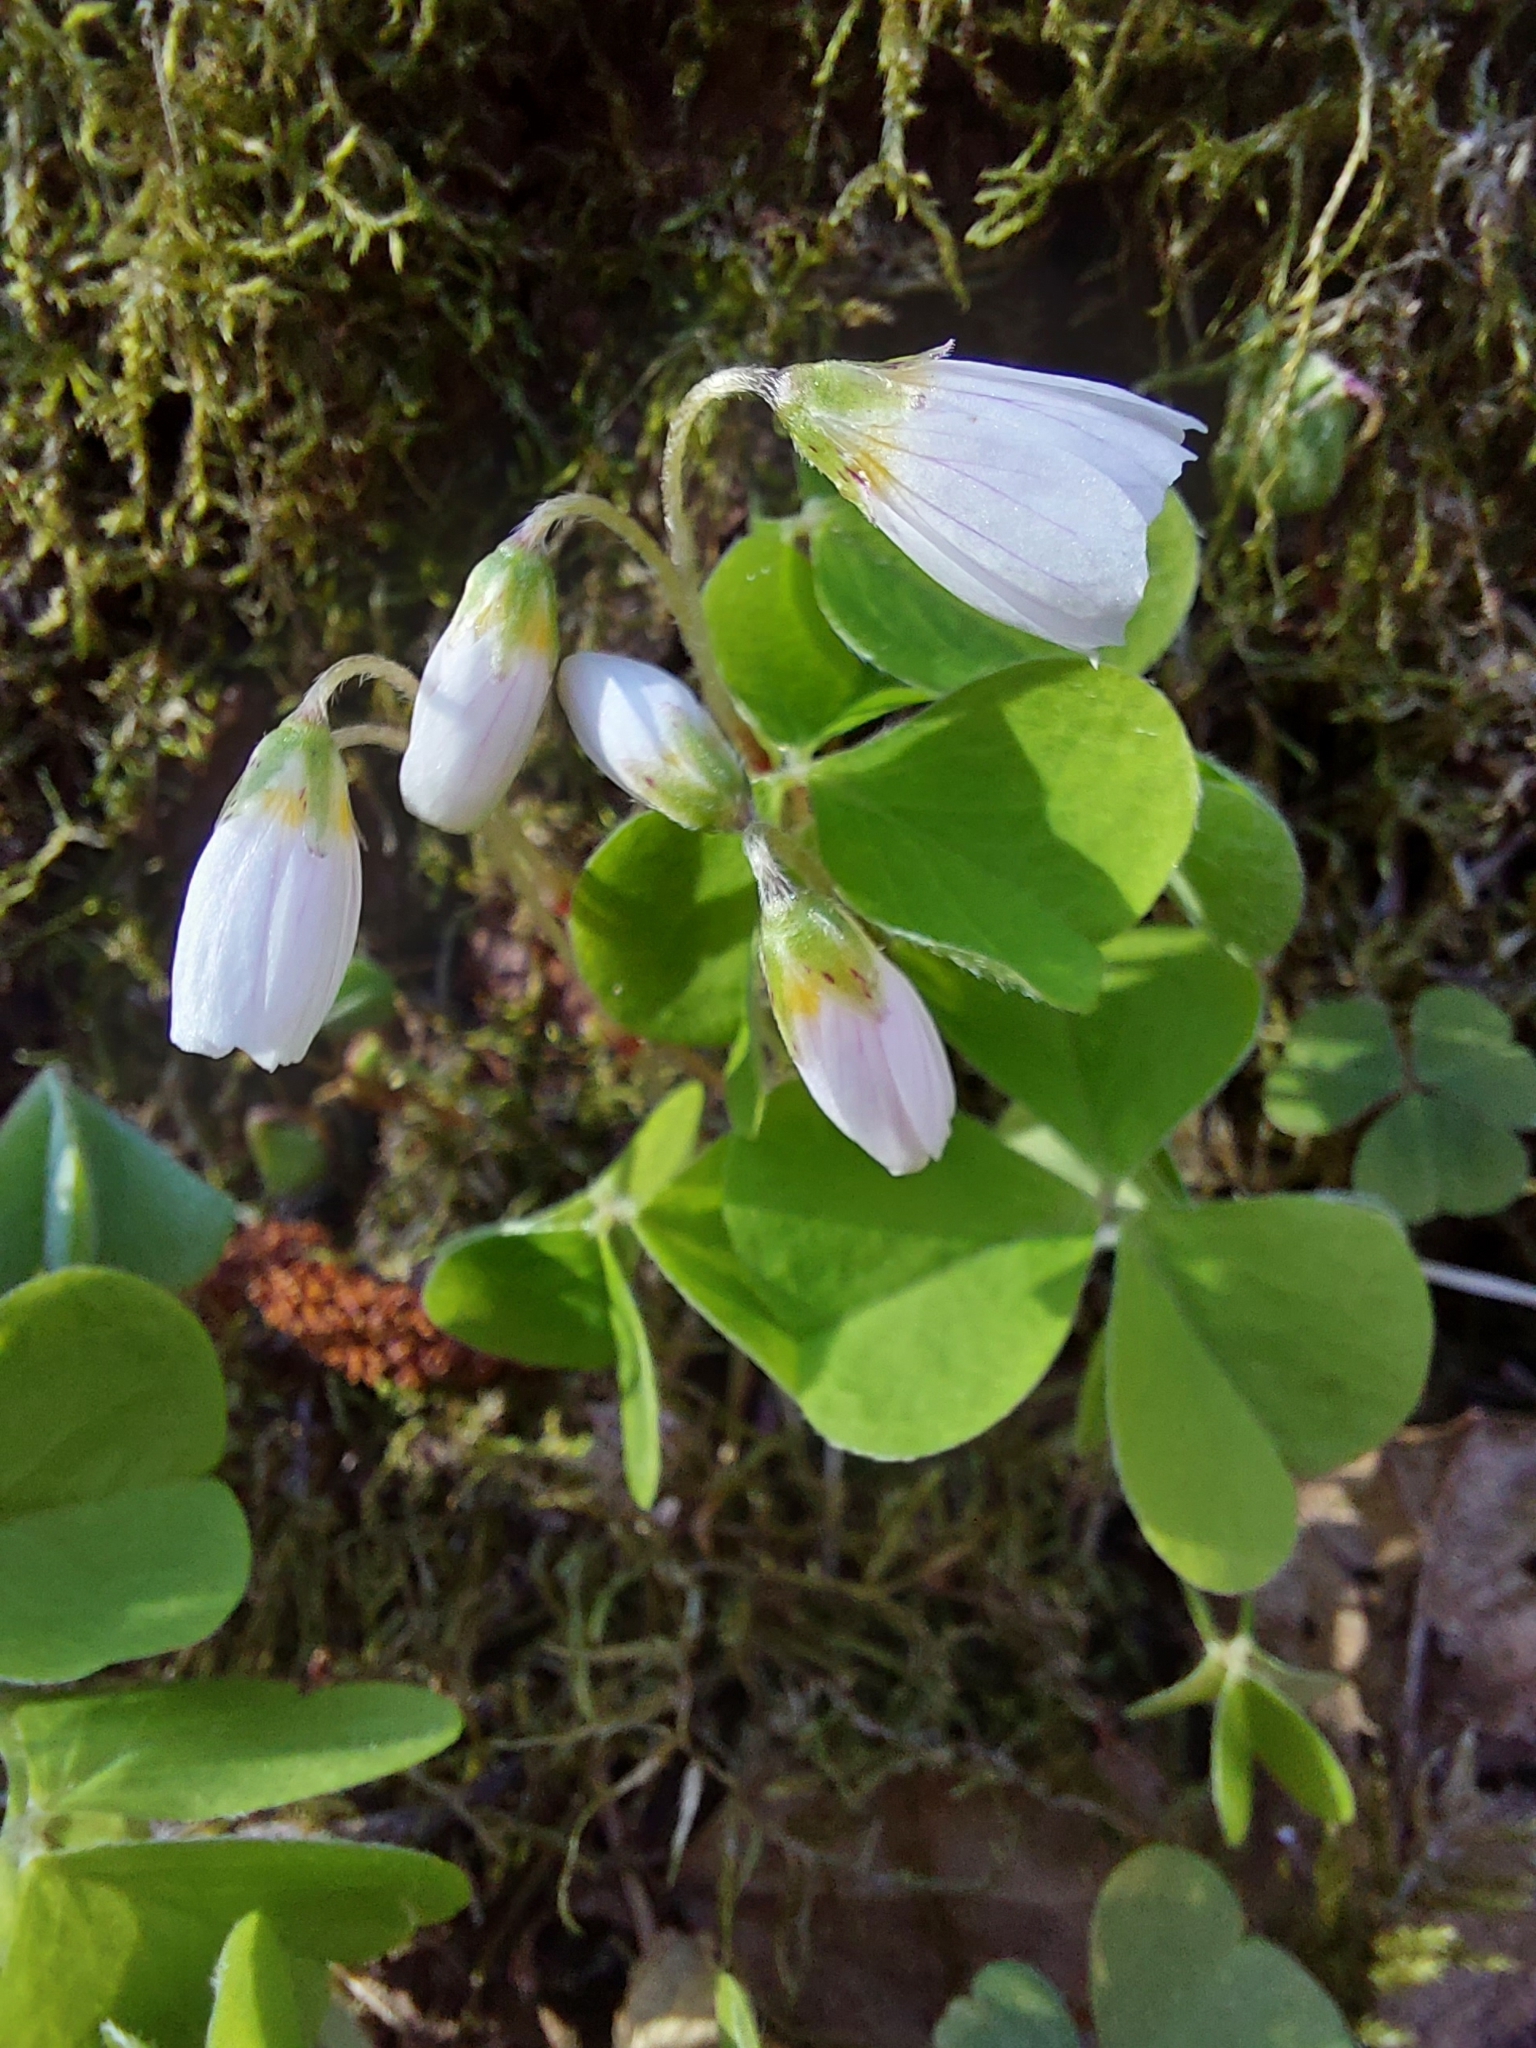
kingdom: Plantae
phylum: Tracheophyta
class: Magnoliopsida
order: Oxalidales
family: Oxalidaceae
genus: Oxalis
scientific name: Oxalis acetosella
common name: Wood-sorrel
